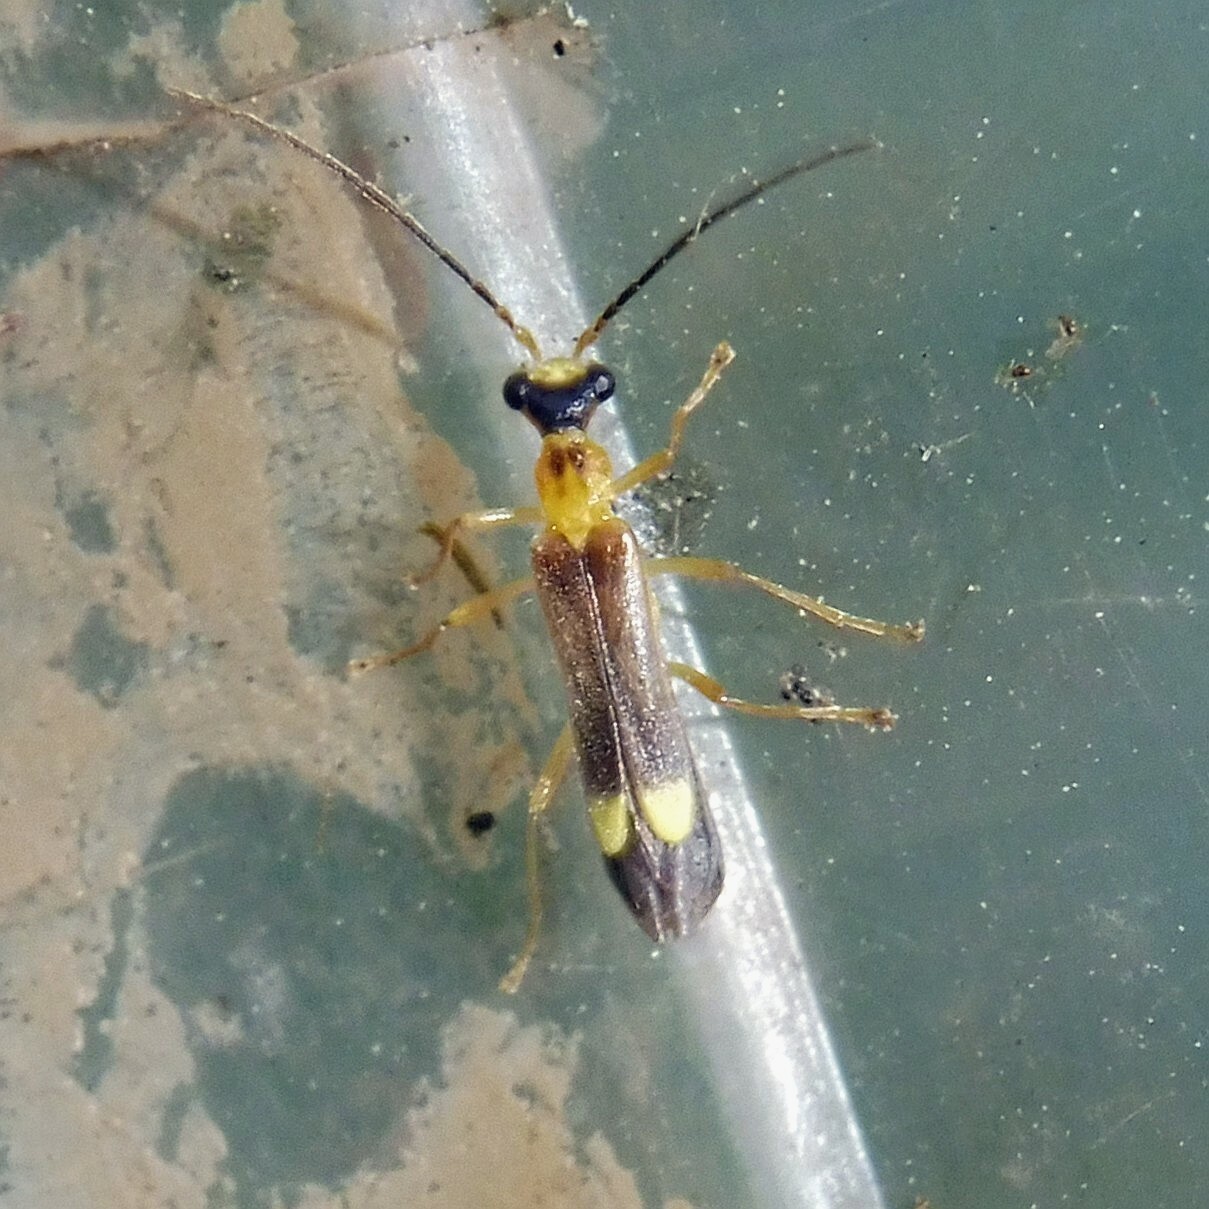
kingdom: Animalia
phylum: Arthropoda
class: Insecta
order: Coleoptera
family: Cantharidae
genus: Malthinus
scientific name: Malthinus flaveolus
